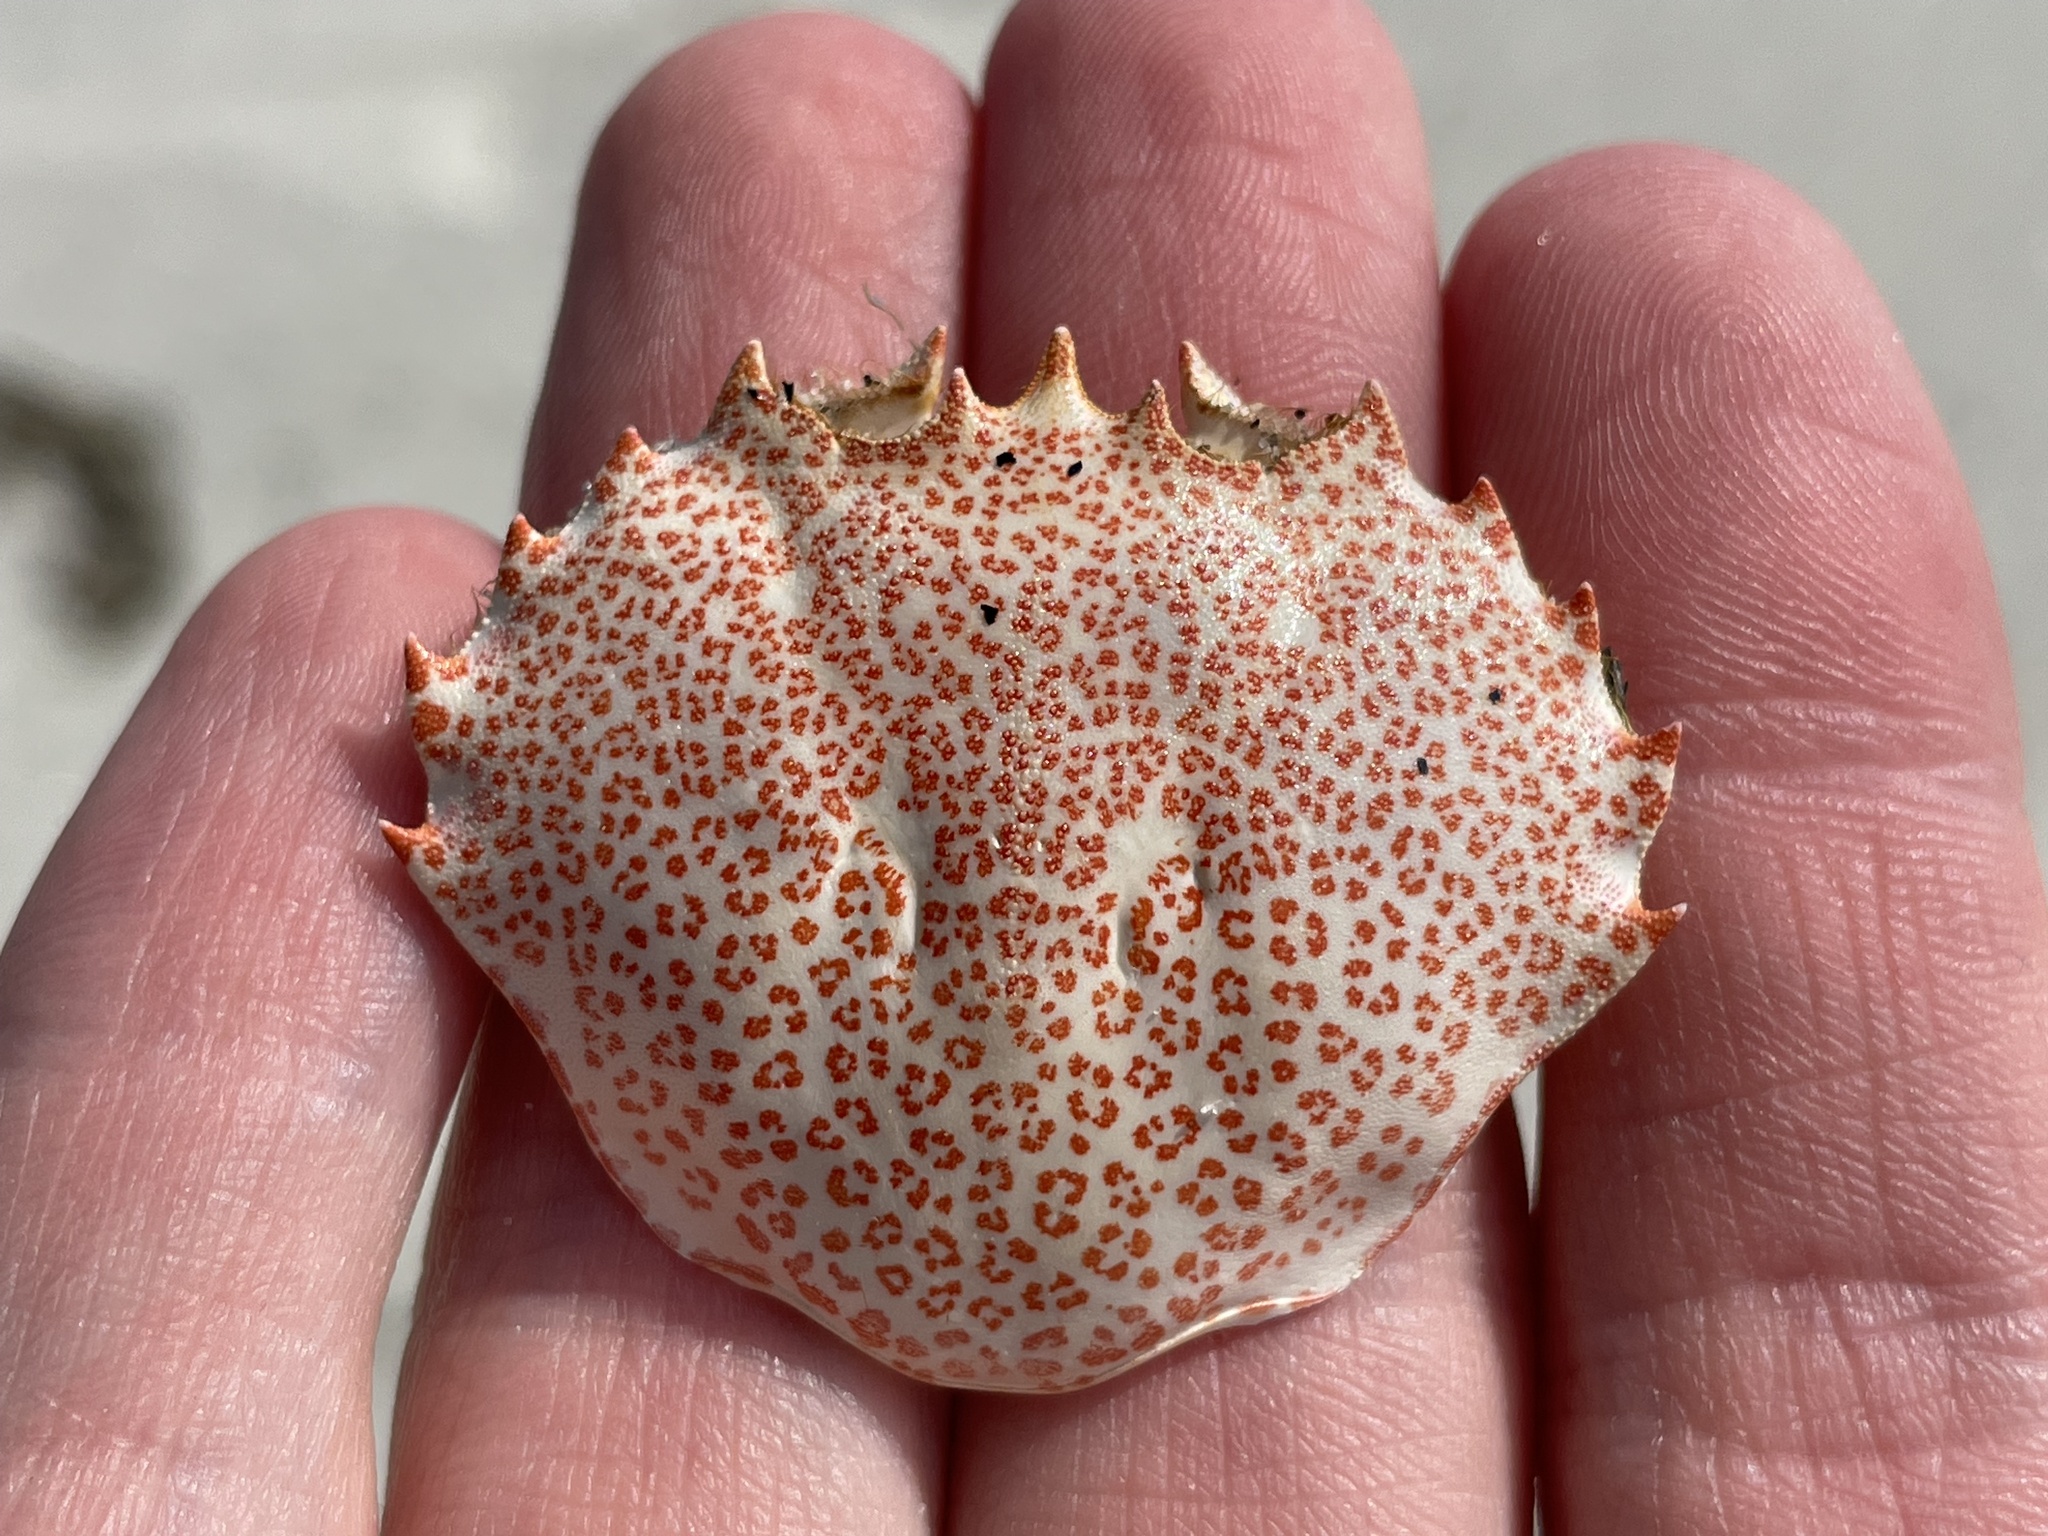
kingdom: Animalia
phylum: Arthropoda
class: Malacostraca
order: Decapoda
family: Ovalipidae
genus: Ovalipes
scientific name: Ovalipes ocellatus
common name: Lady crab
